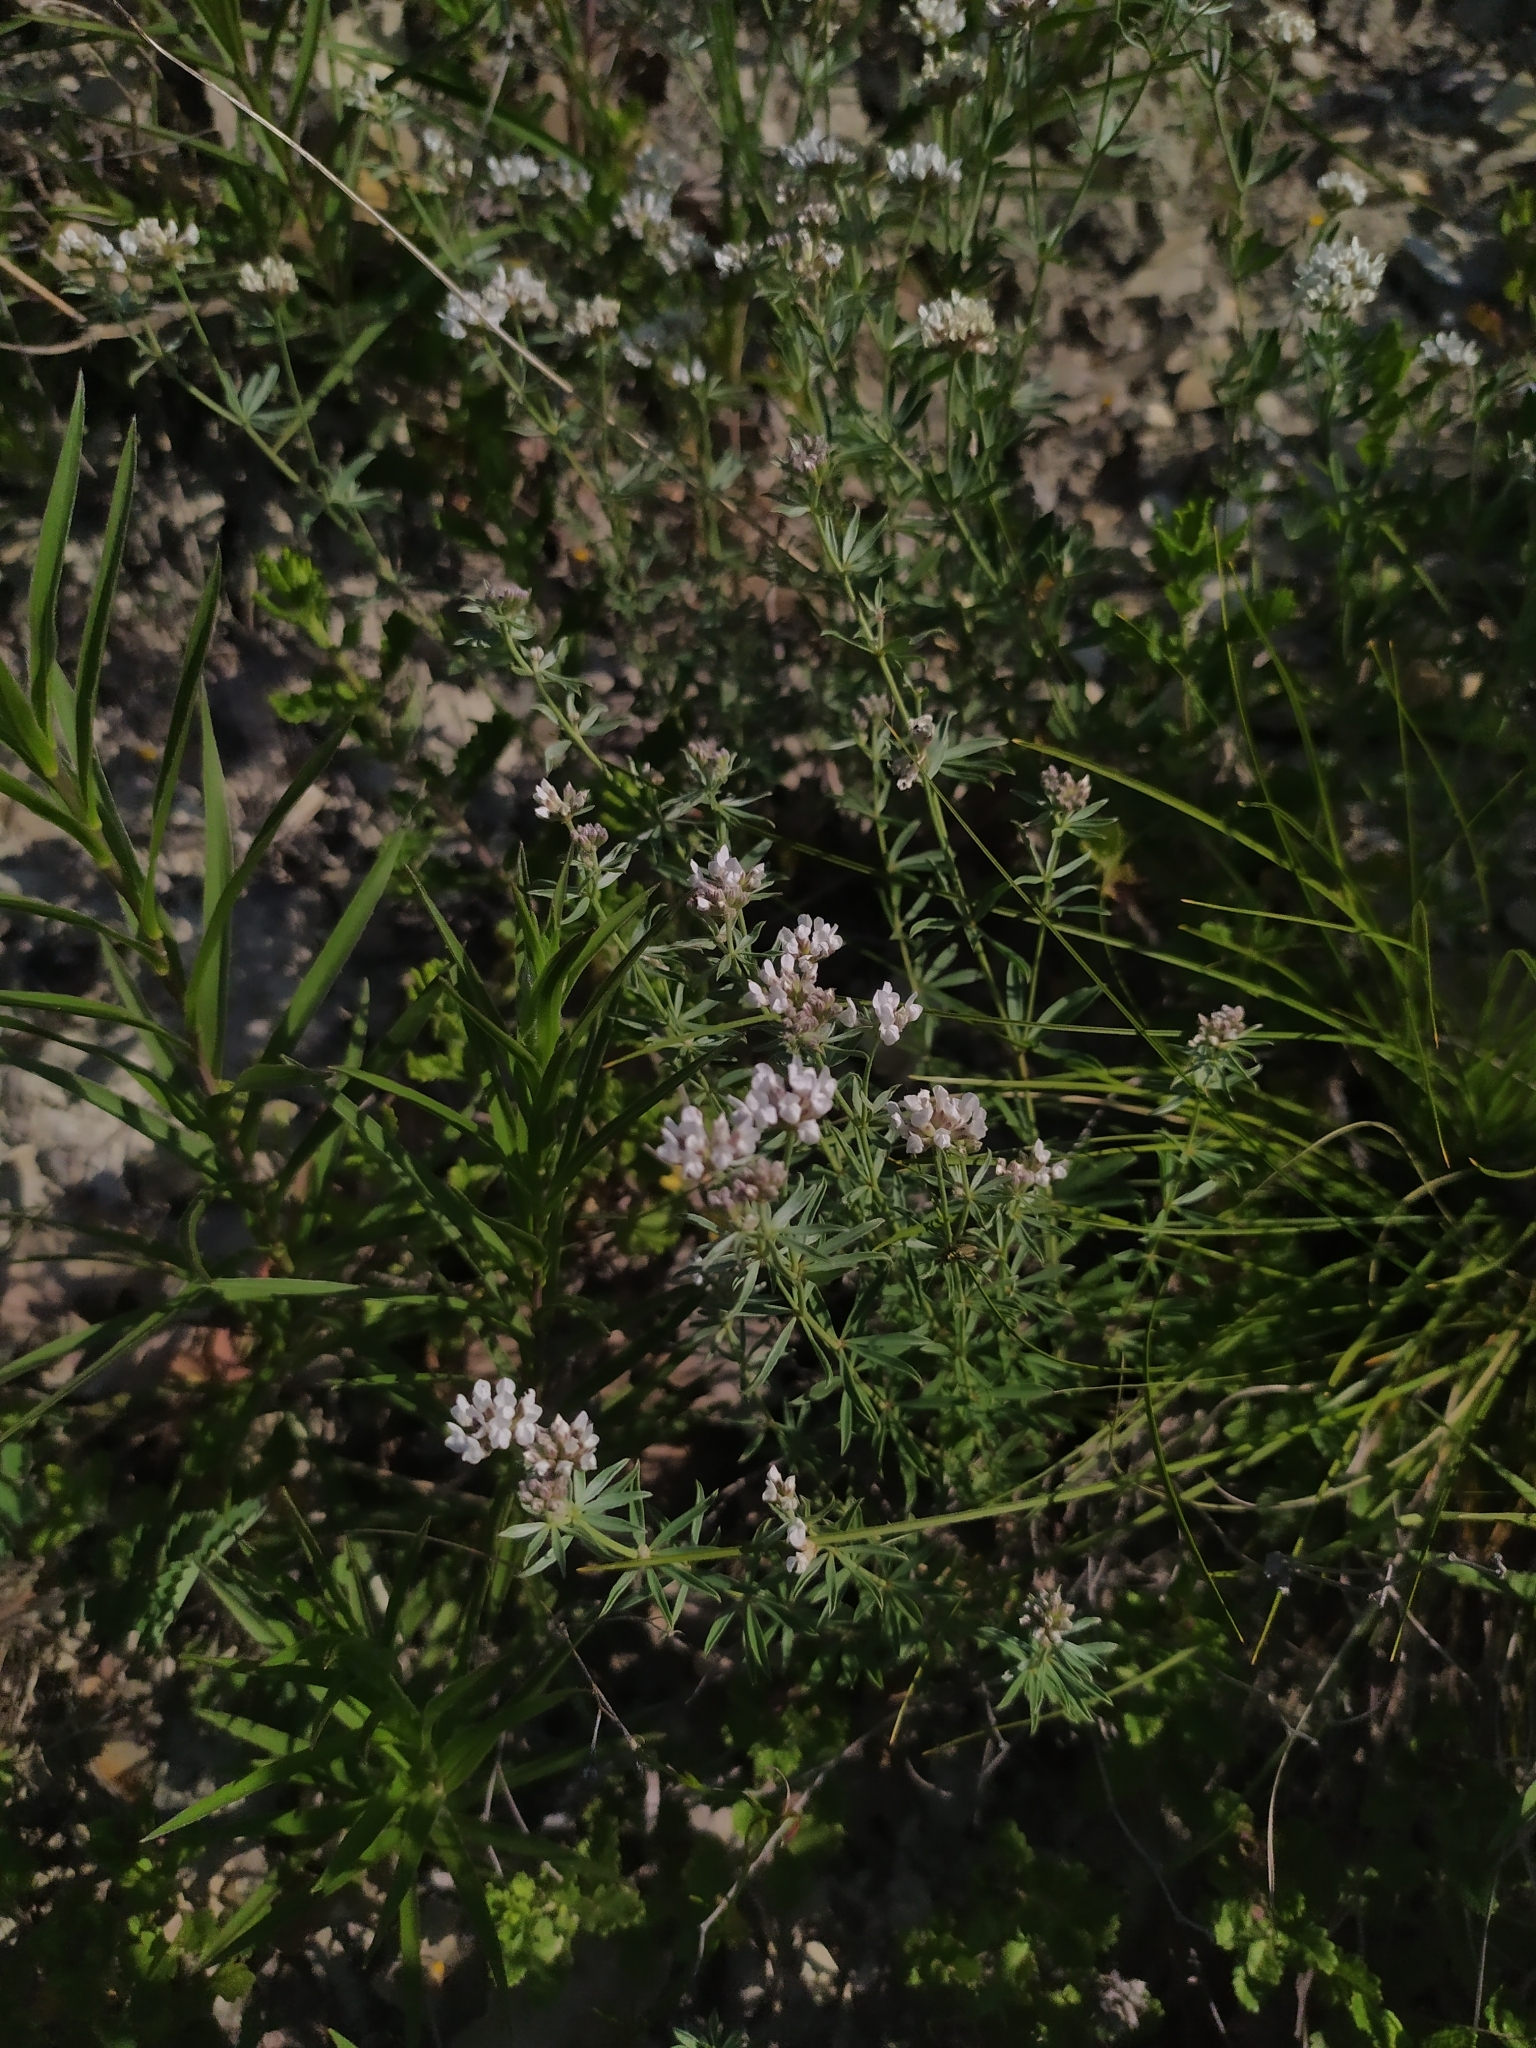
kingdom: Plantae
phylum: Tracheophyta
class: Magnoliopsida
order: Fabales
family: Fabaceae
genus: Lotus
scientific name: Lotus germanicus
